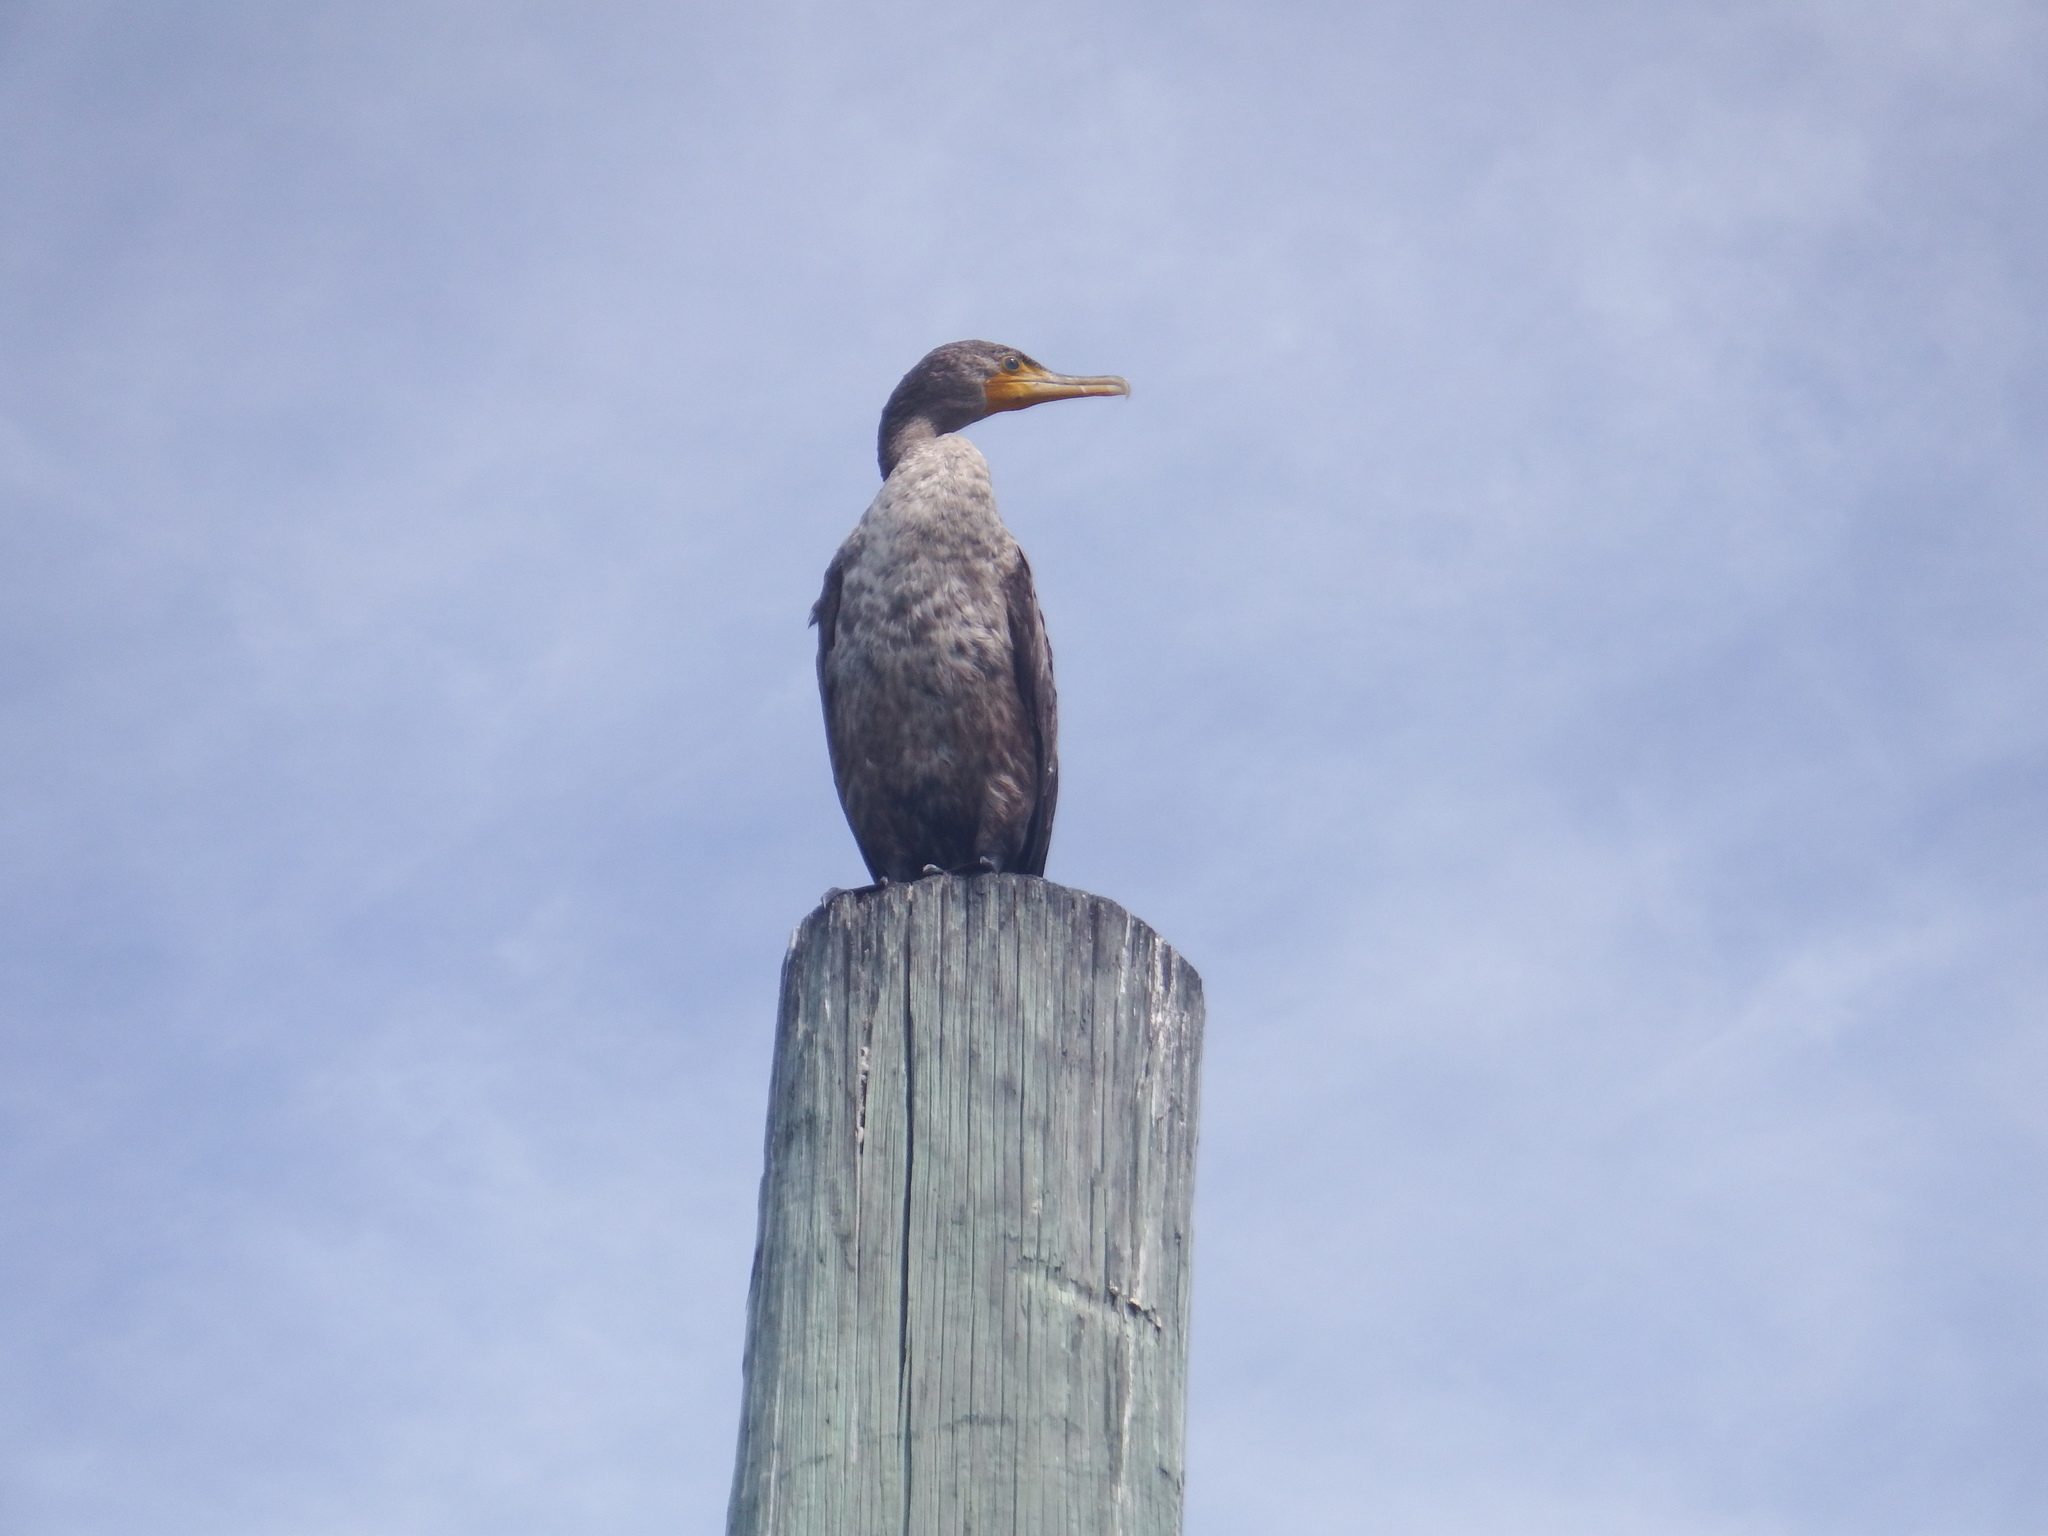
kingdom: Animalia
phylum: Chordata
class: Aves
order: Suliformes
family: Phalacrocoracidae
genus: Phalacrocorax
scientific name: Phalacrocorax auritus
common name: Double-crested cormorant
